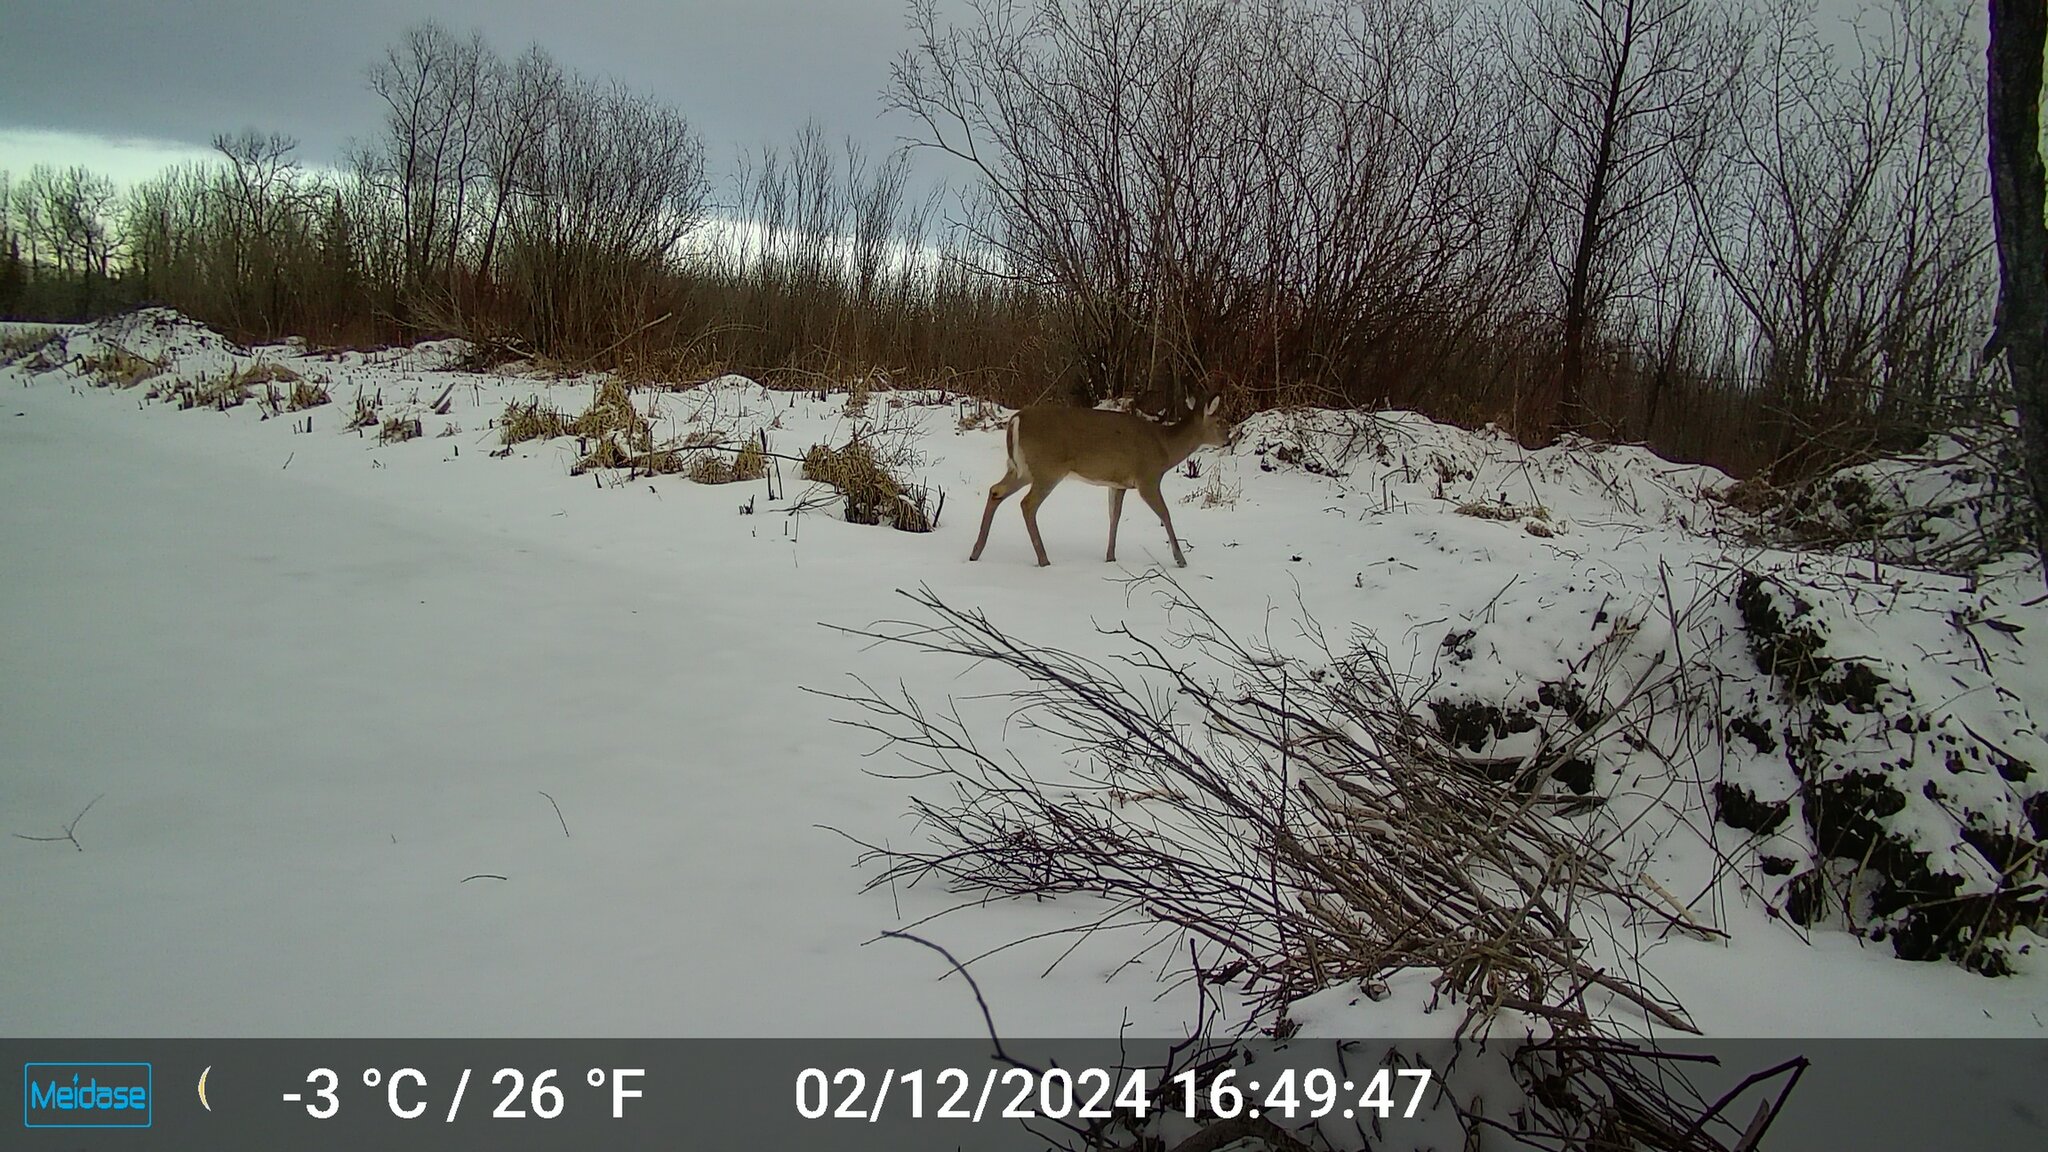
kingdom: Animalia
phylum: Chordata
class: Mammalia
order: Artiodactyla
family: Cervidae
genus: Odocoileus
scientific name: Odocoileus virginianus
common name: White-tailed deer
